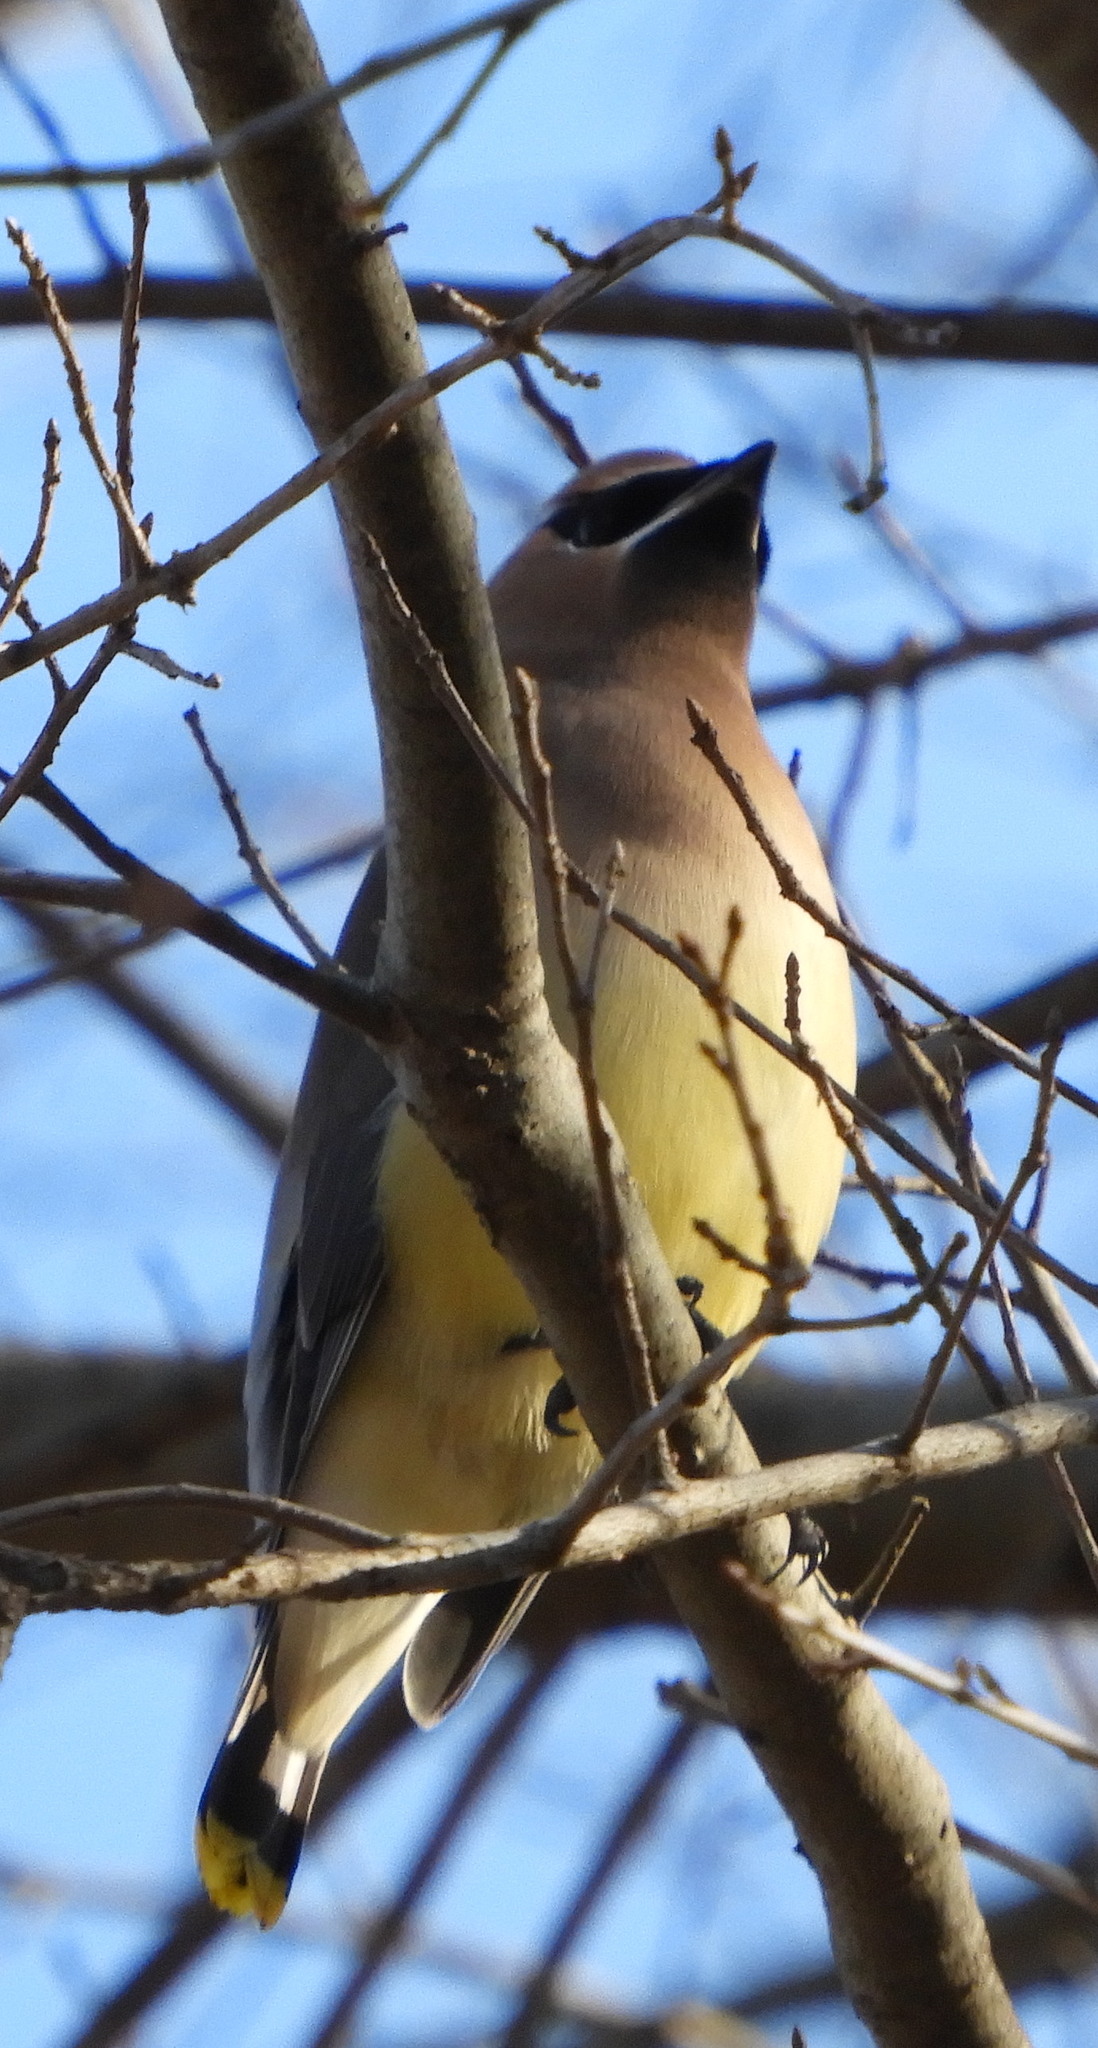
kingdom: Animalia
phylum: Chordata
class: Aves
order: Passeriformes
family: Bombycillidae
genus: Bombycilla
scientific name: Bombycilla cedrorum
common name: Cedar waxwing
